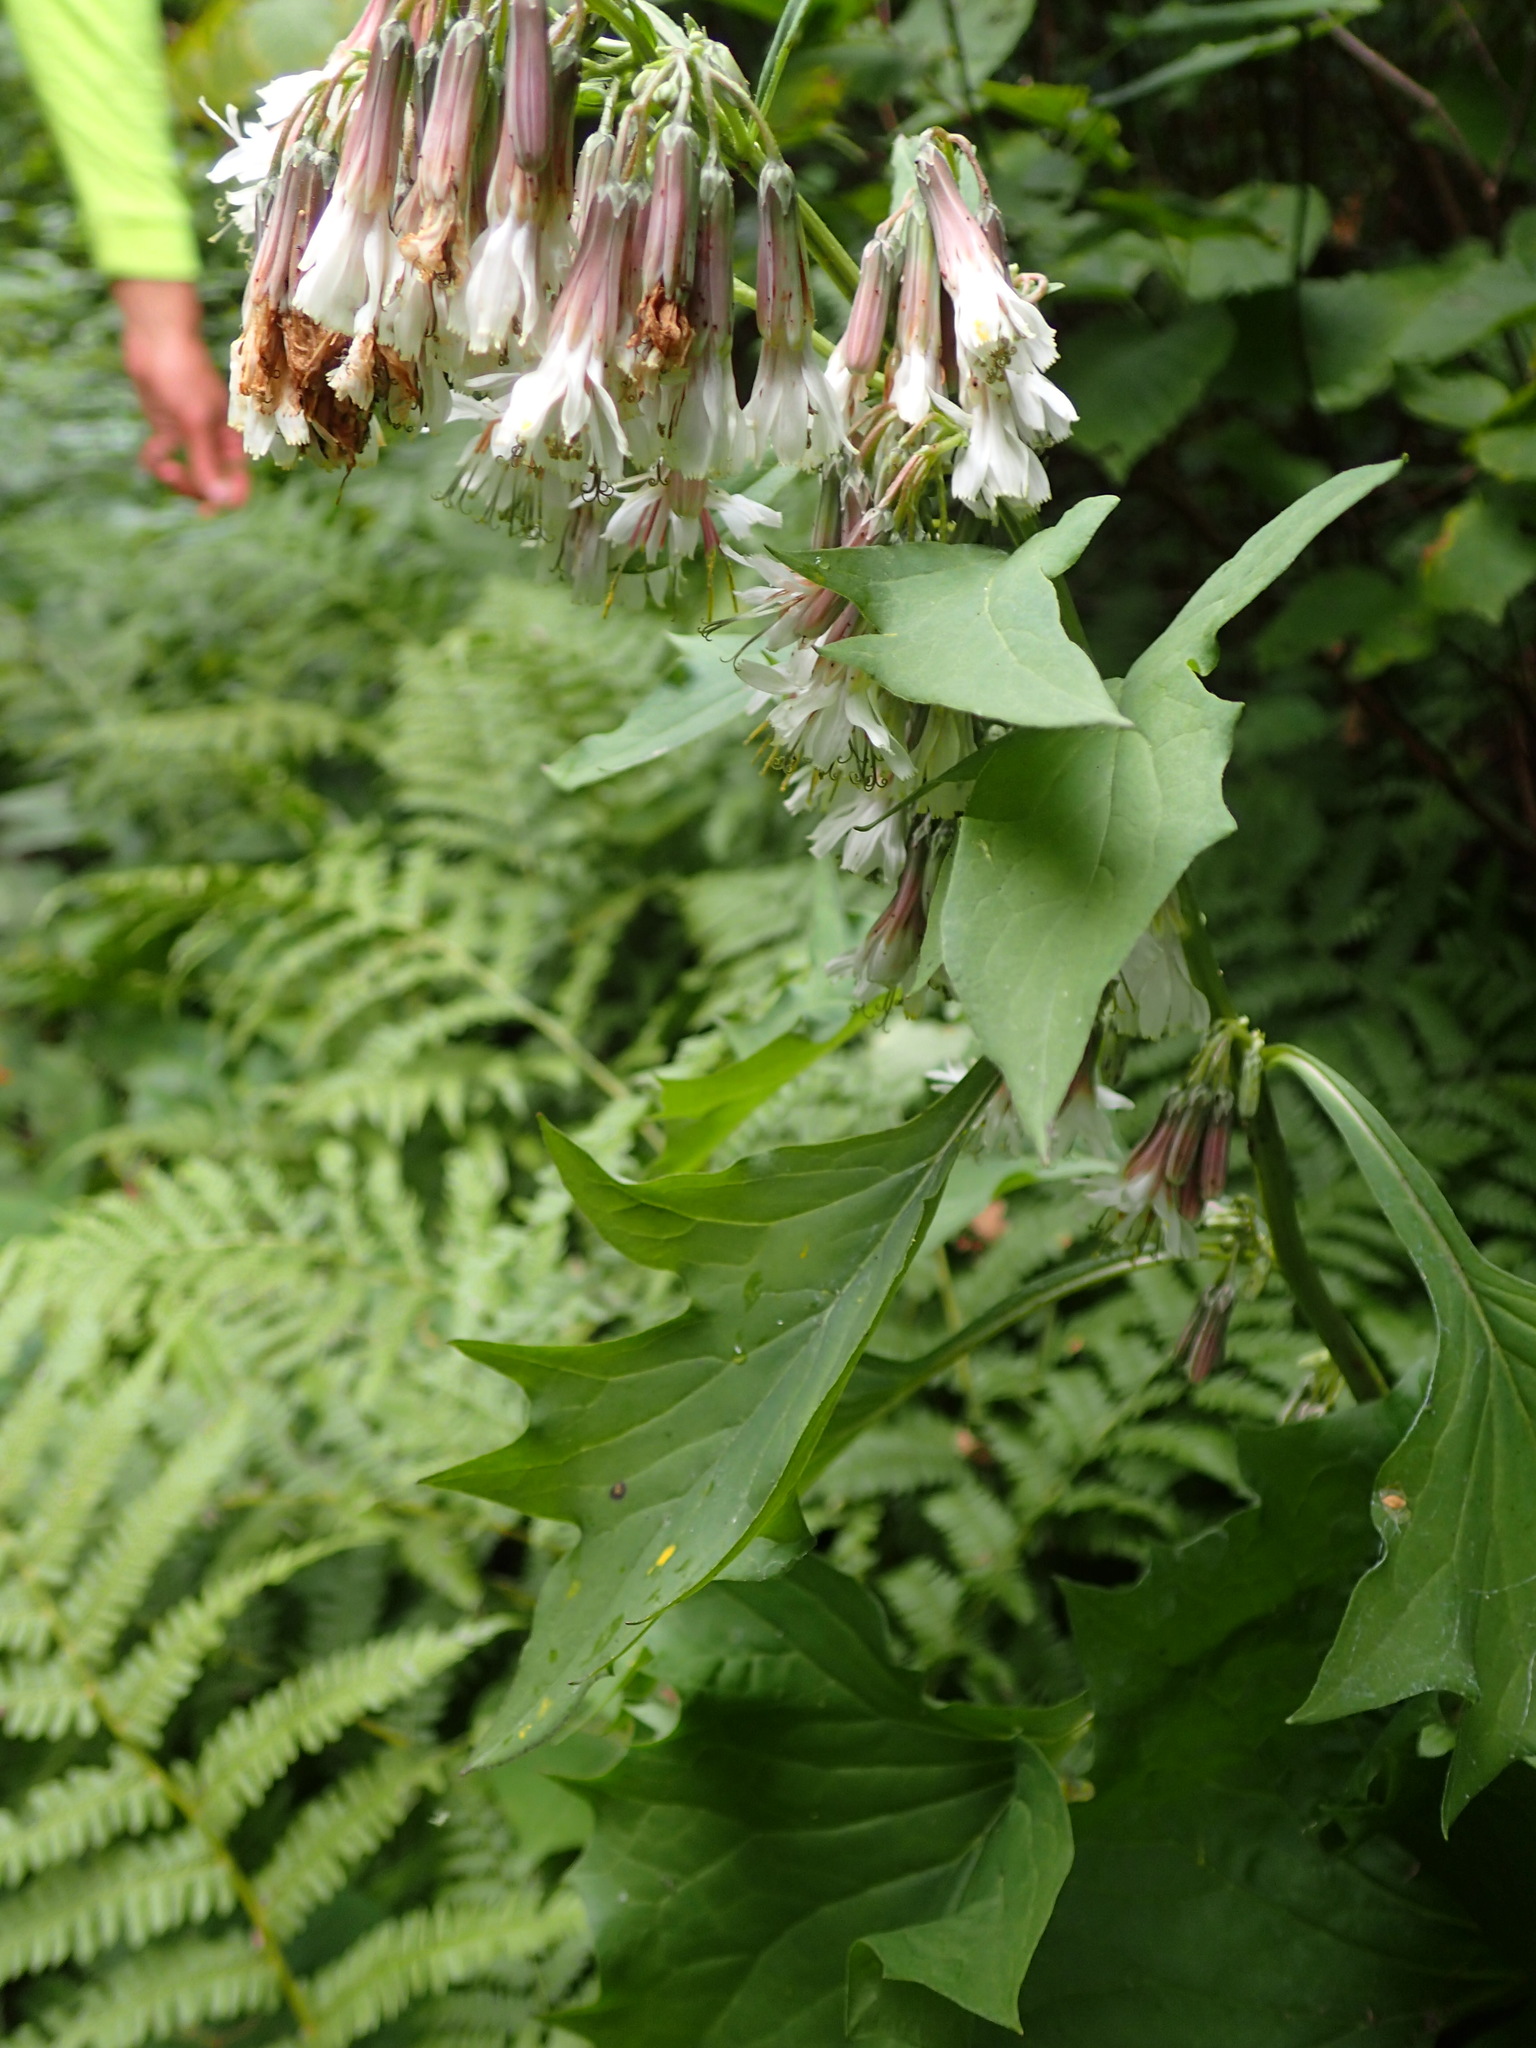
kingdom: Plantae
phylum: Tracheophyta
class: Magnoliopsida
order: Asterales
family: Asteraceae
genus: Nabalus
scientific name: Nabalus albus
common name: White rattlesnakeroot
